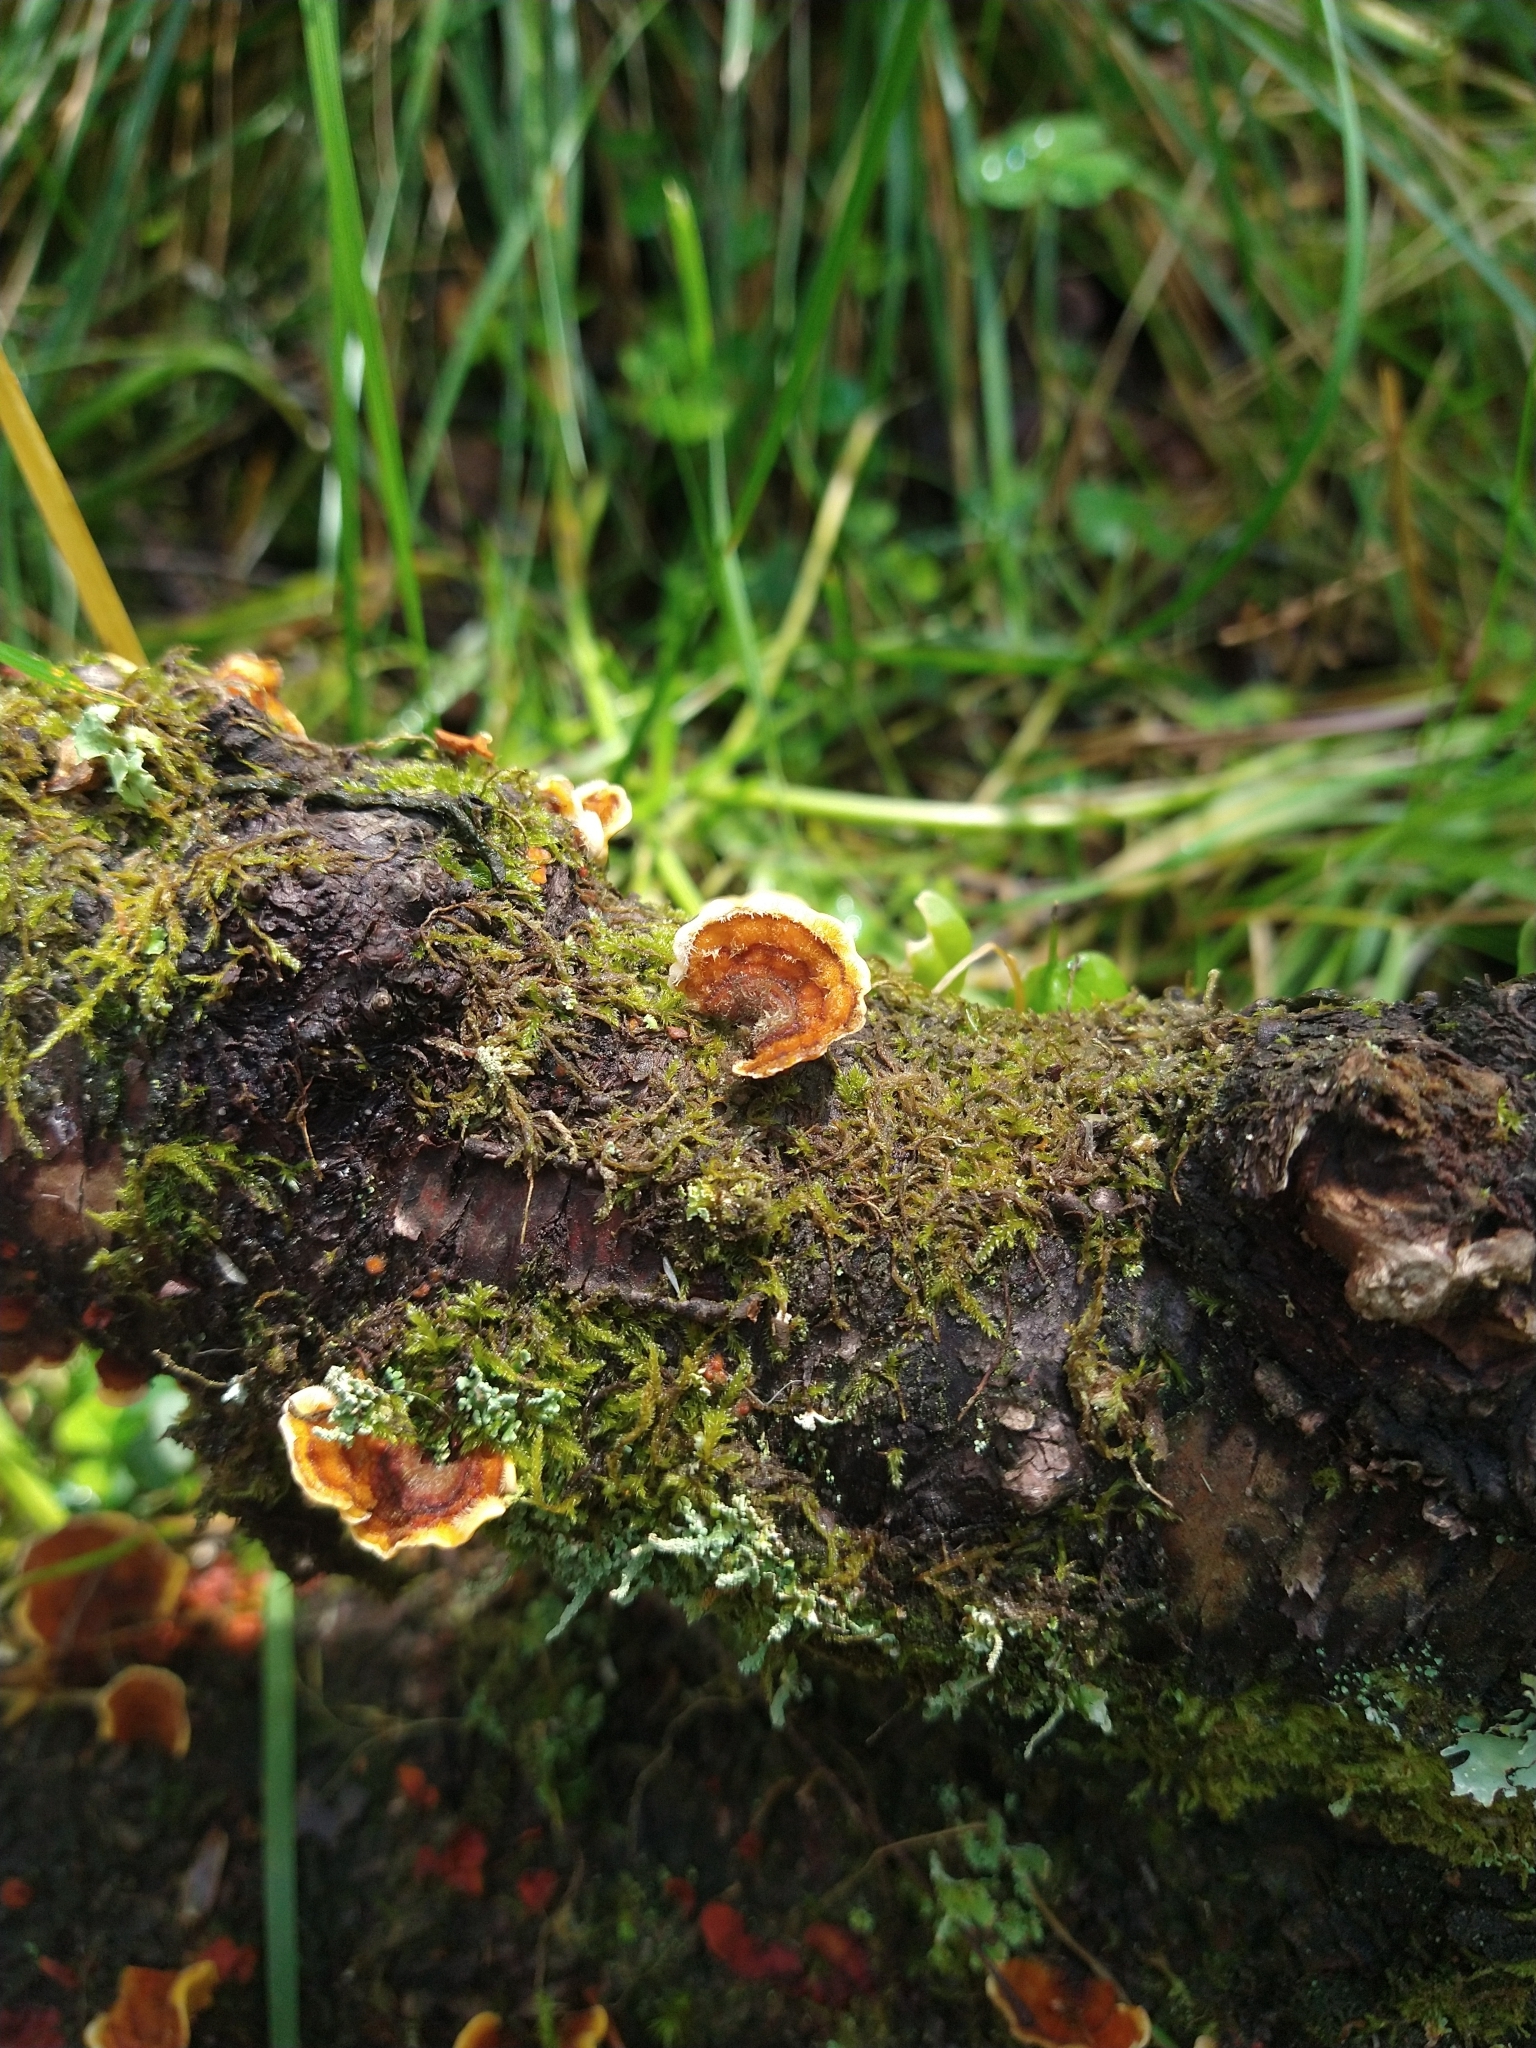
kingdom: Fungi
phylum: Basidiomycota
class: Agaricomycetes
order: Russulales
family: Stereaceae
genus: Stereum
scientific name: Stereum hirsutum
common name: Hairy curtain crust
